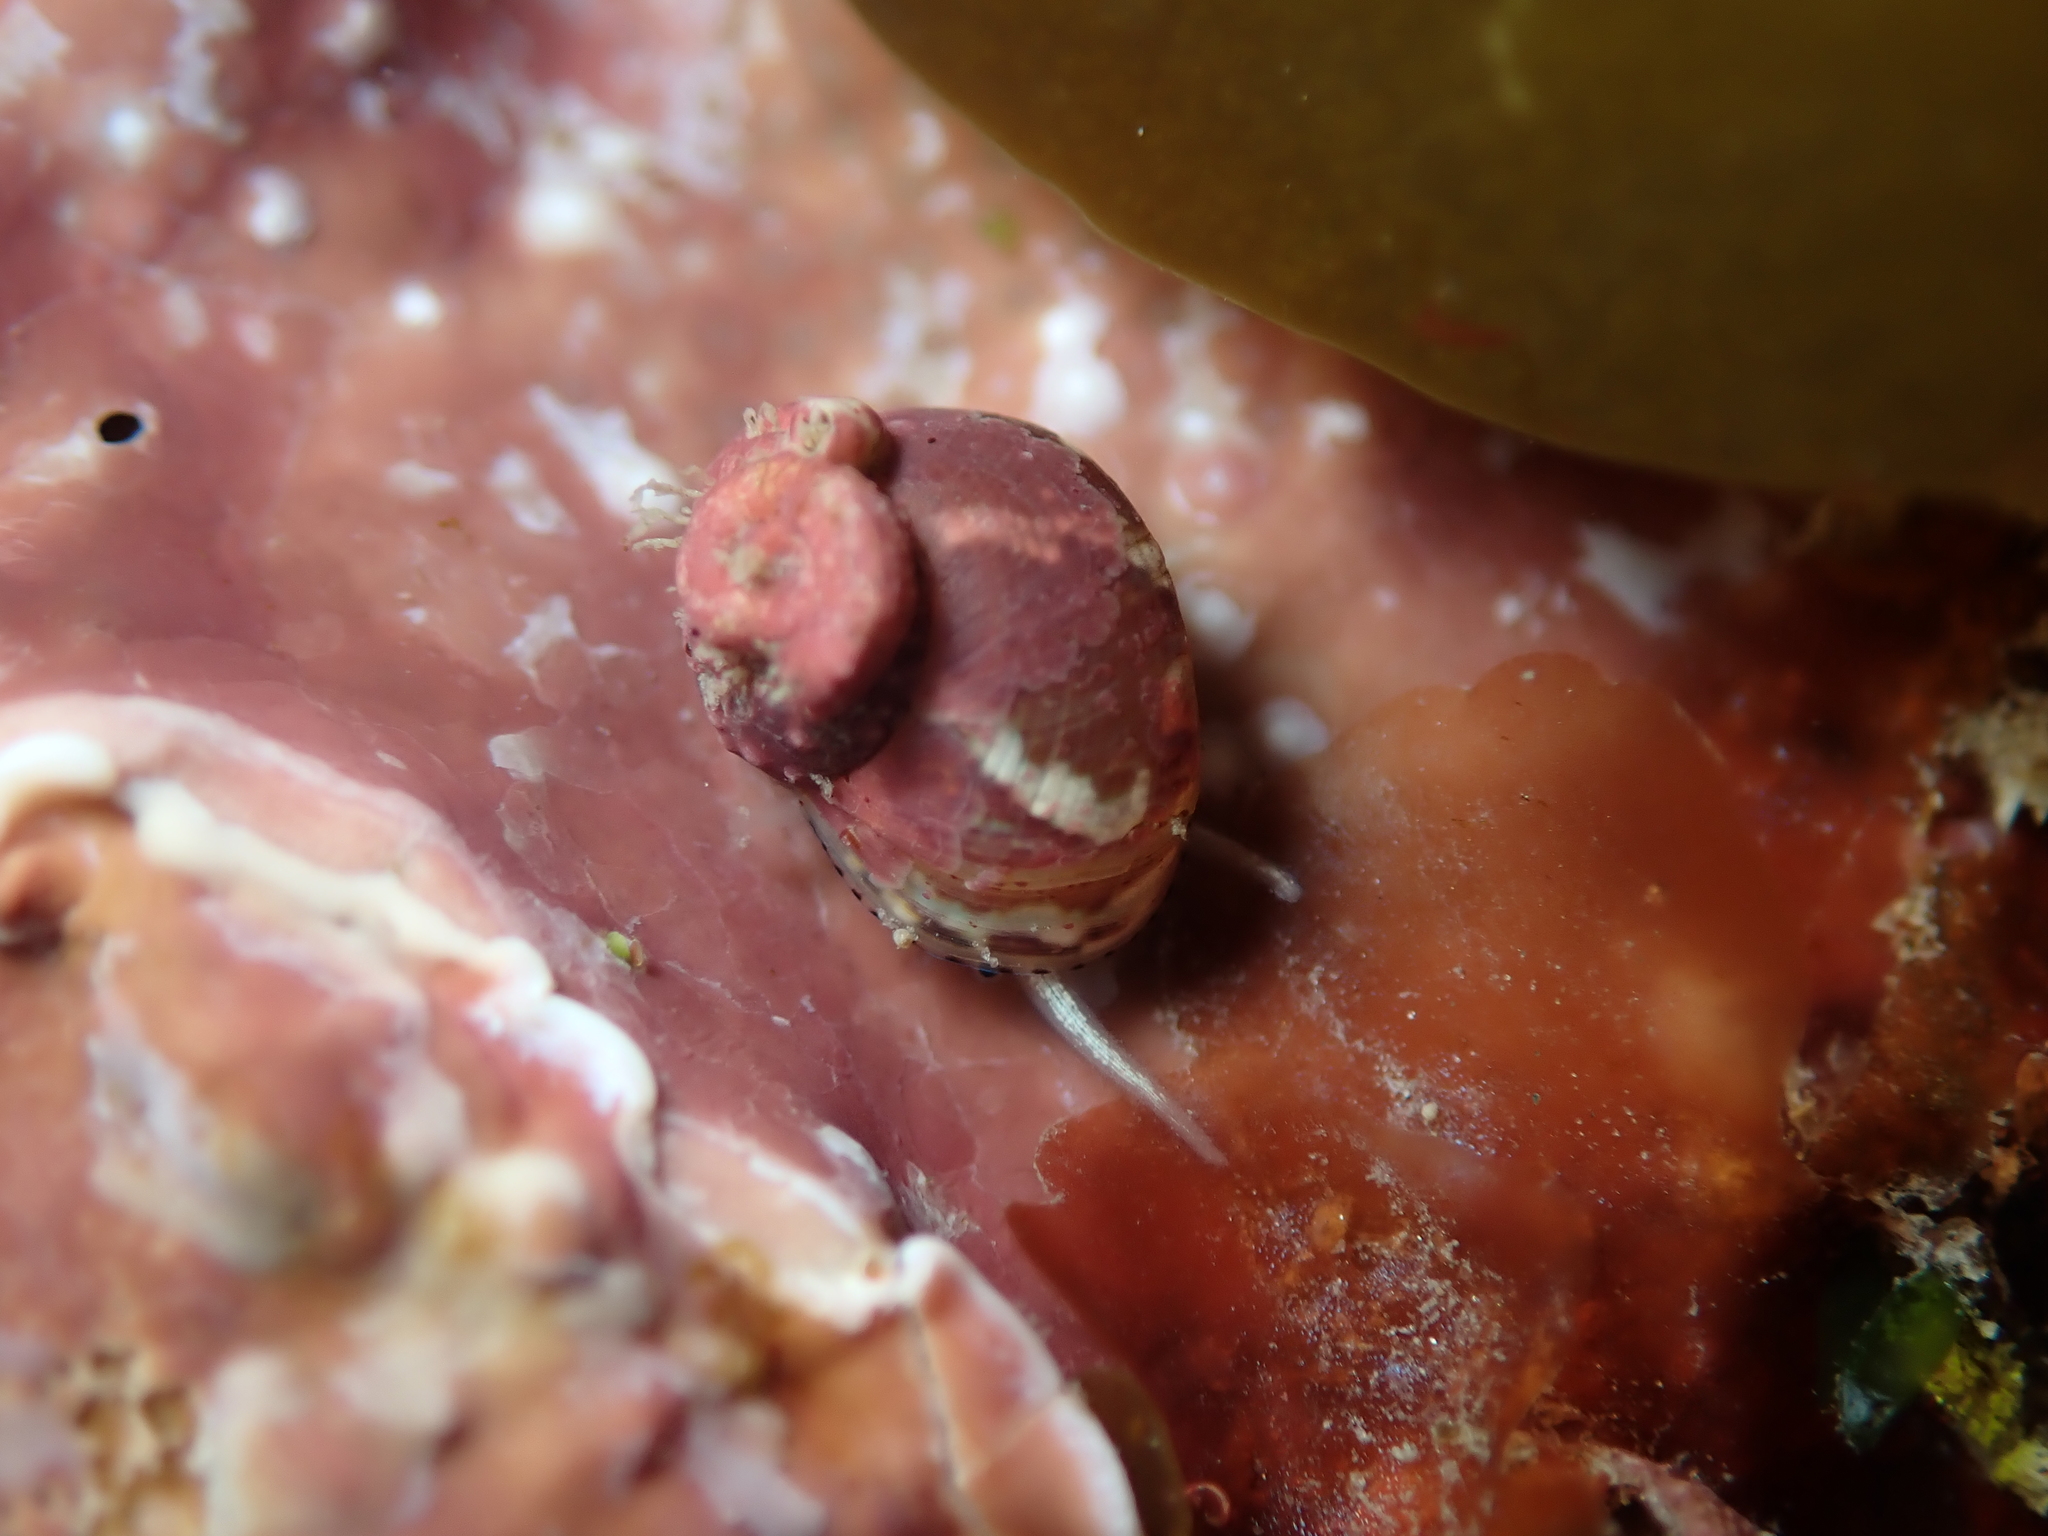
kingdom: Animalia
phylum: Mollusca
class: Gastropoda
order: Trochida
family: Trochidae
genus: Cantharidus
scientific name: Cantharidus dilatatus
